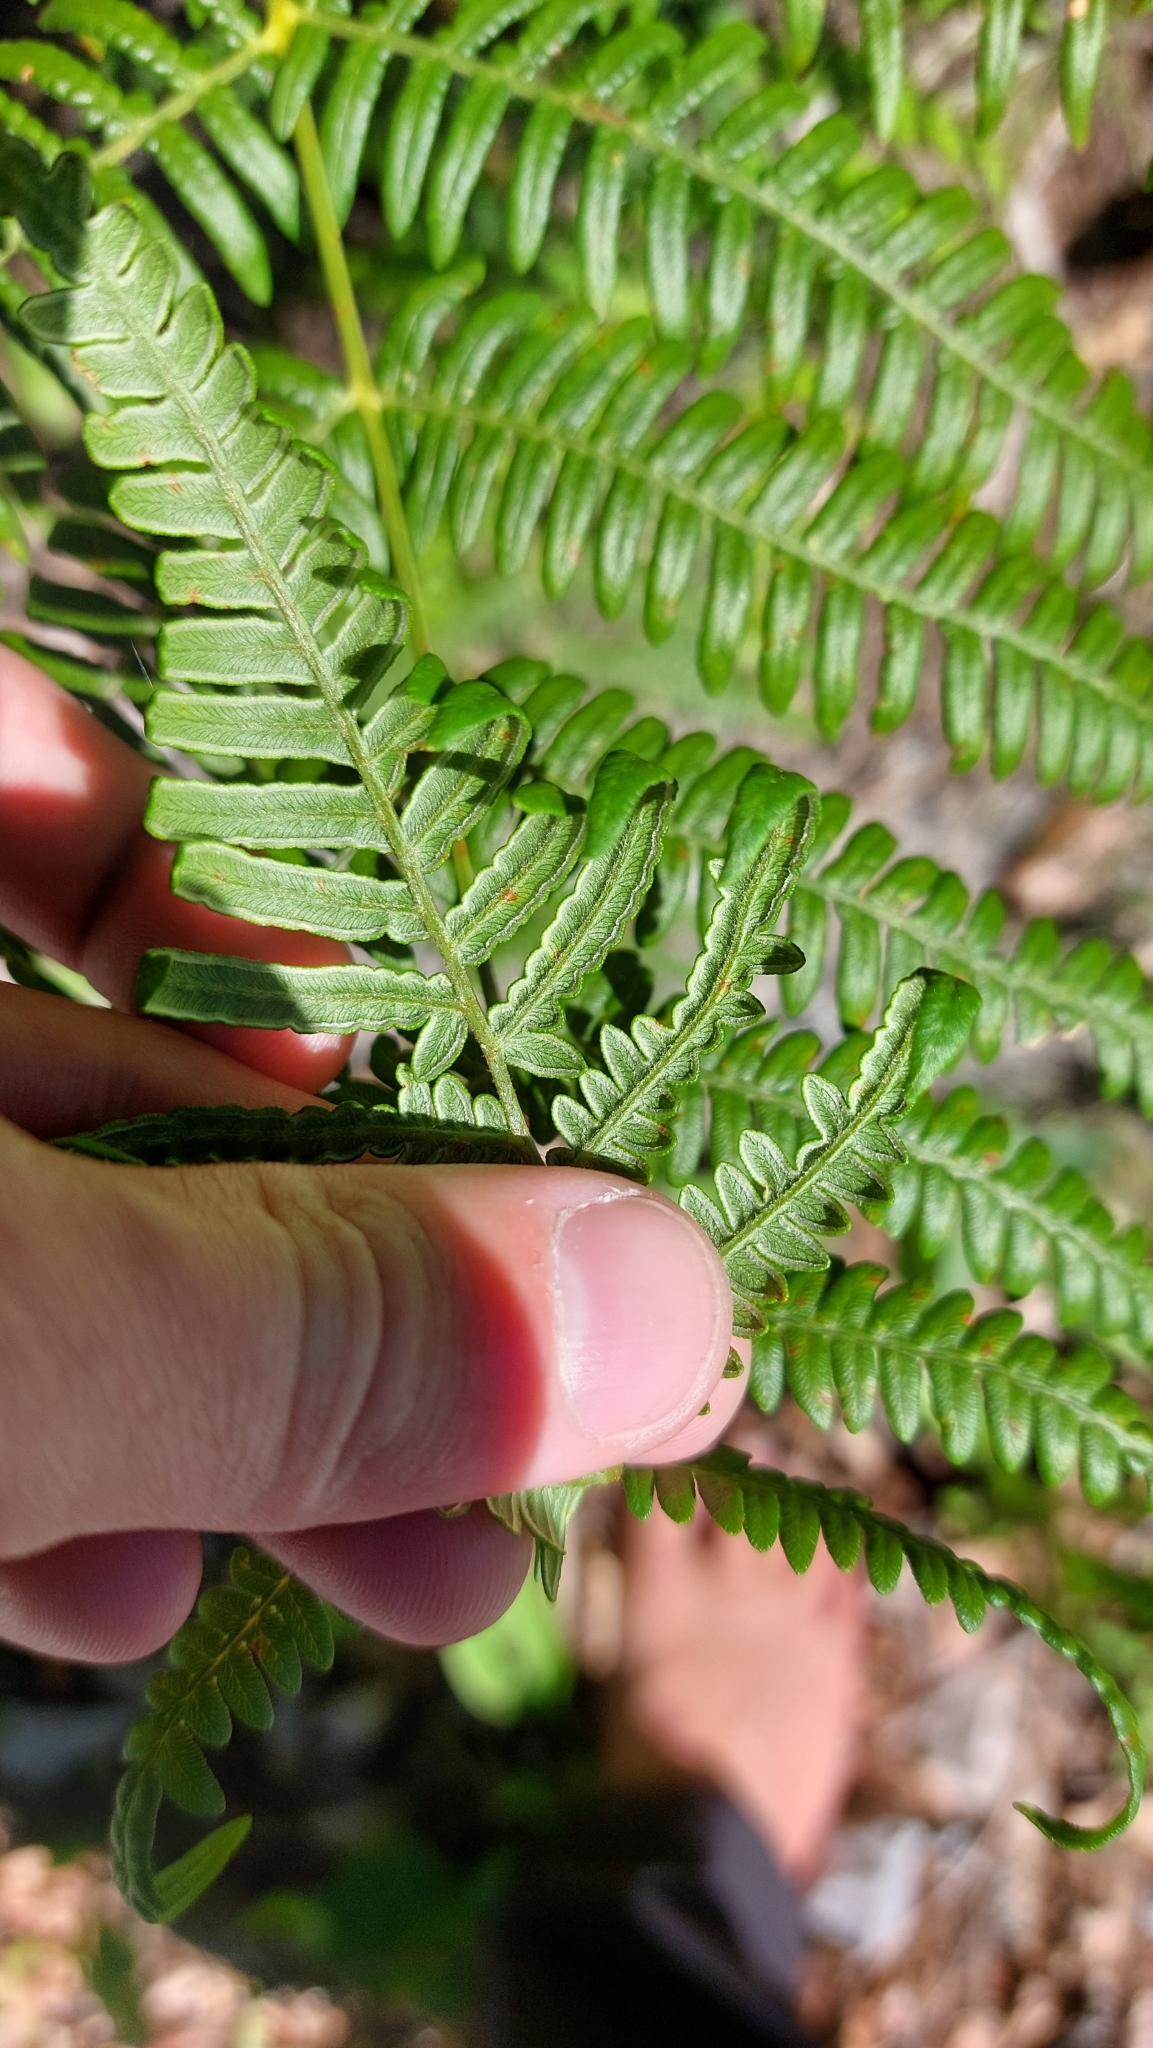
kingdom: Plantae
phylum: Tracheophyta
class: Polypodiopsida
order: Polypodiales
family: Dennstaedtiaceae
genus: Pteridium
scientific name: Pteridium aquilinum
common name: Bracken
